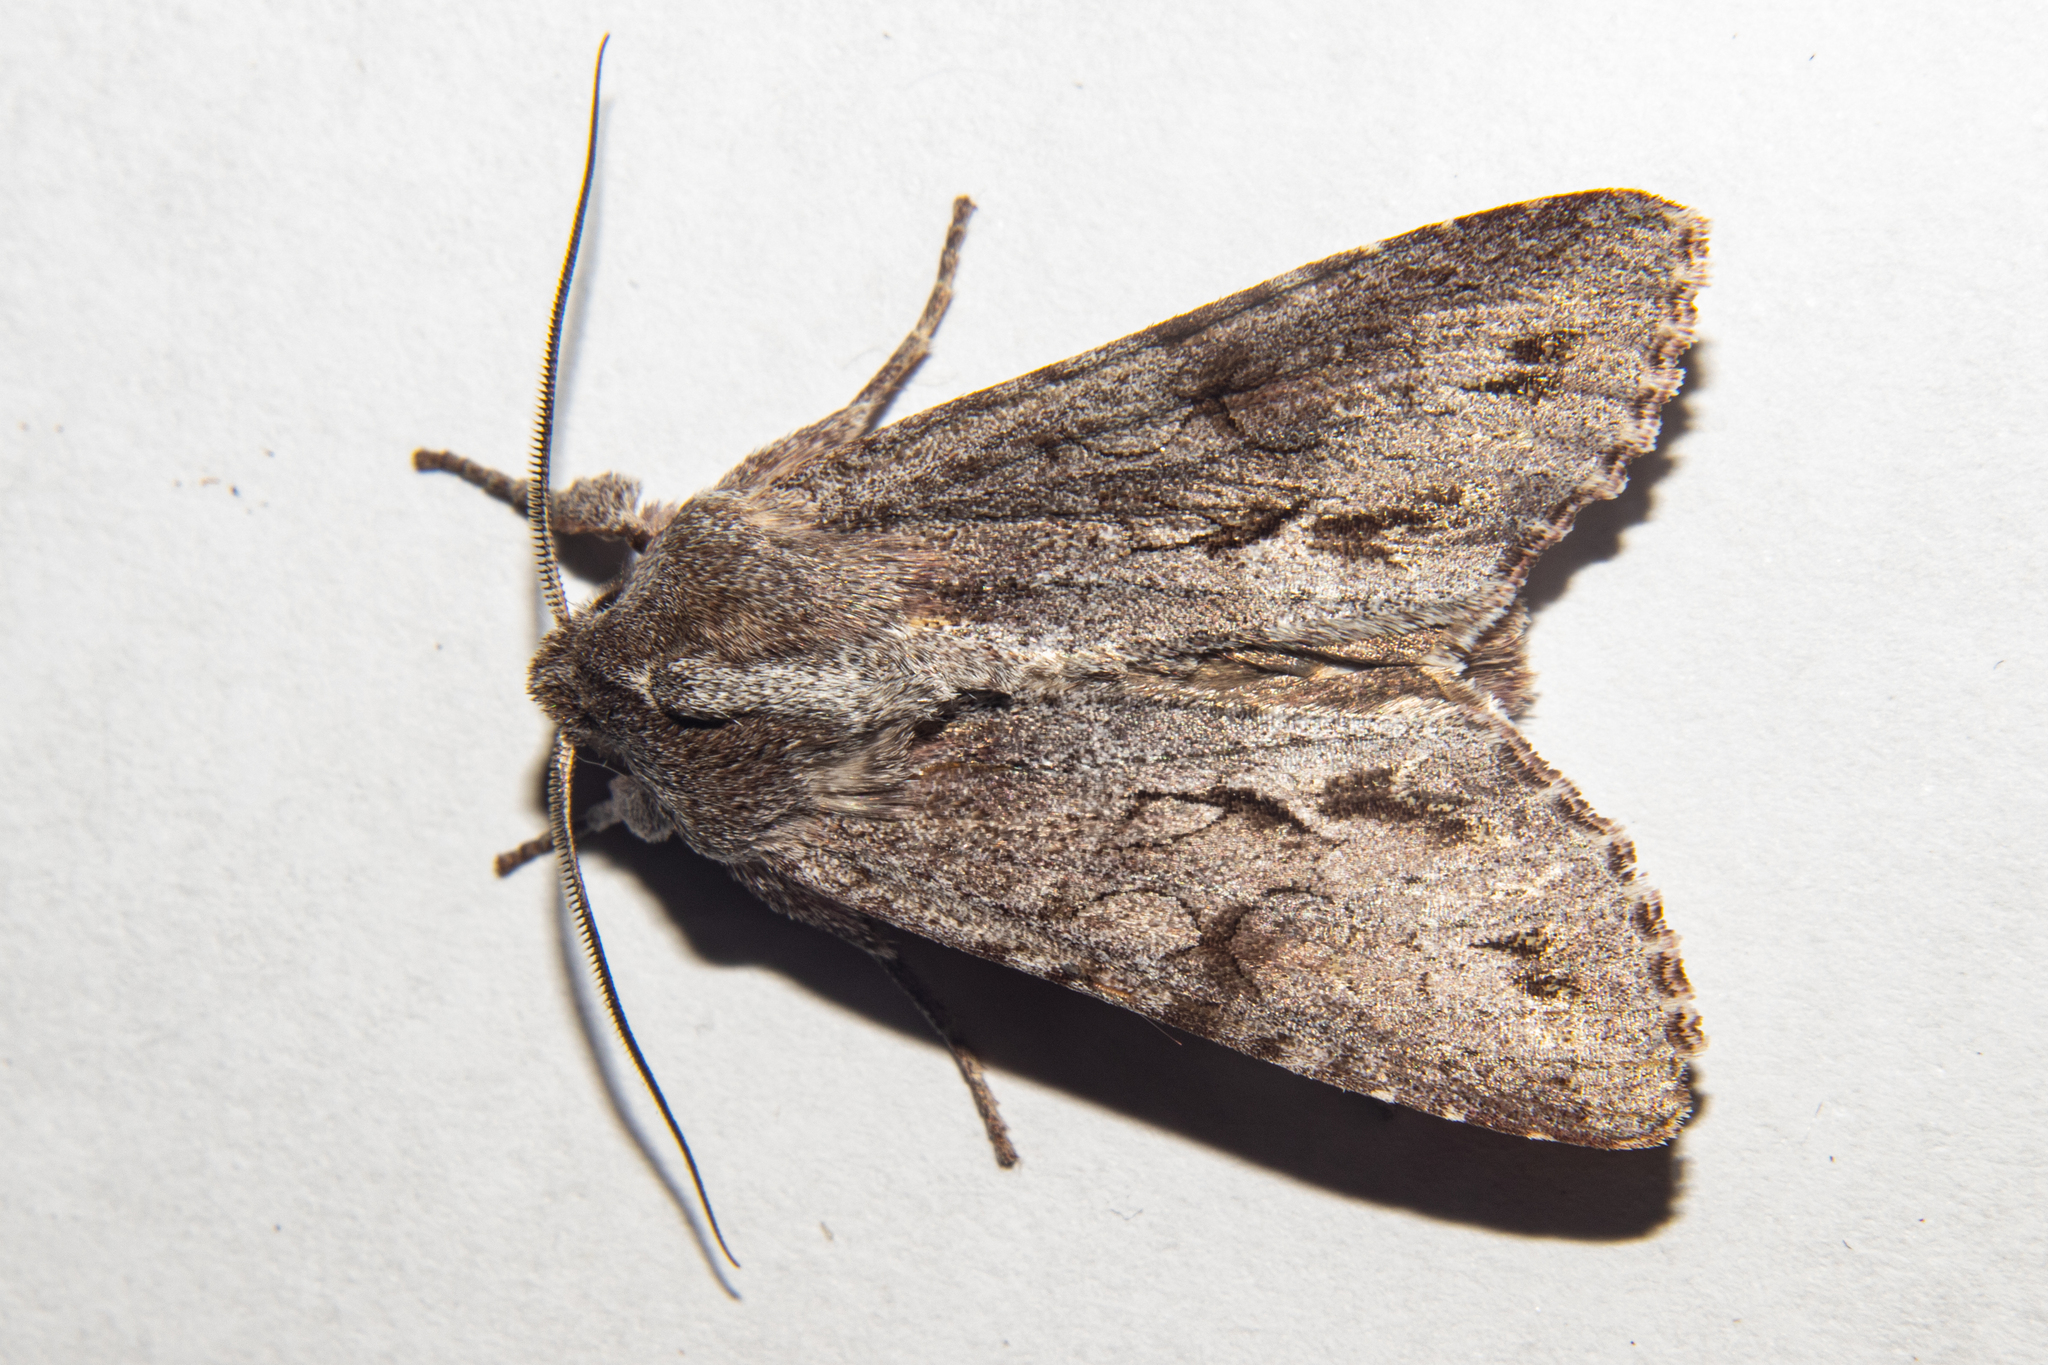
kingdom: Animalia
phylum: Arthropoda
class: Insecta
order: Lepidoptera
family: Noctuidae
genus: Ichneutica
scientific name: Ichneutica
